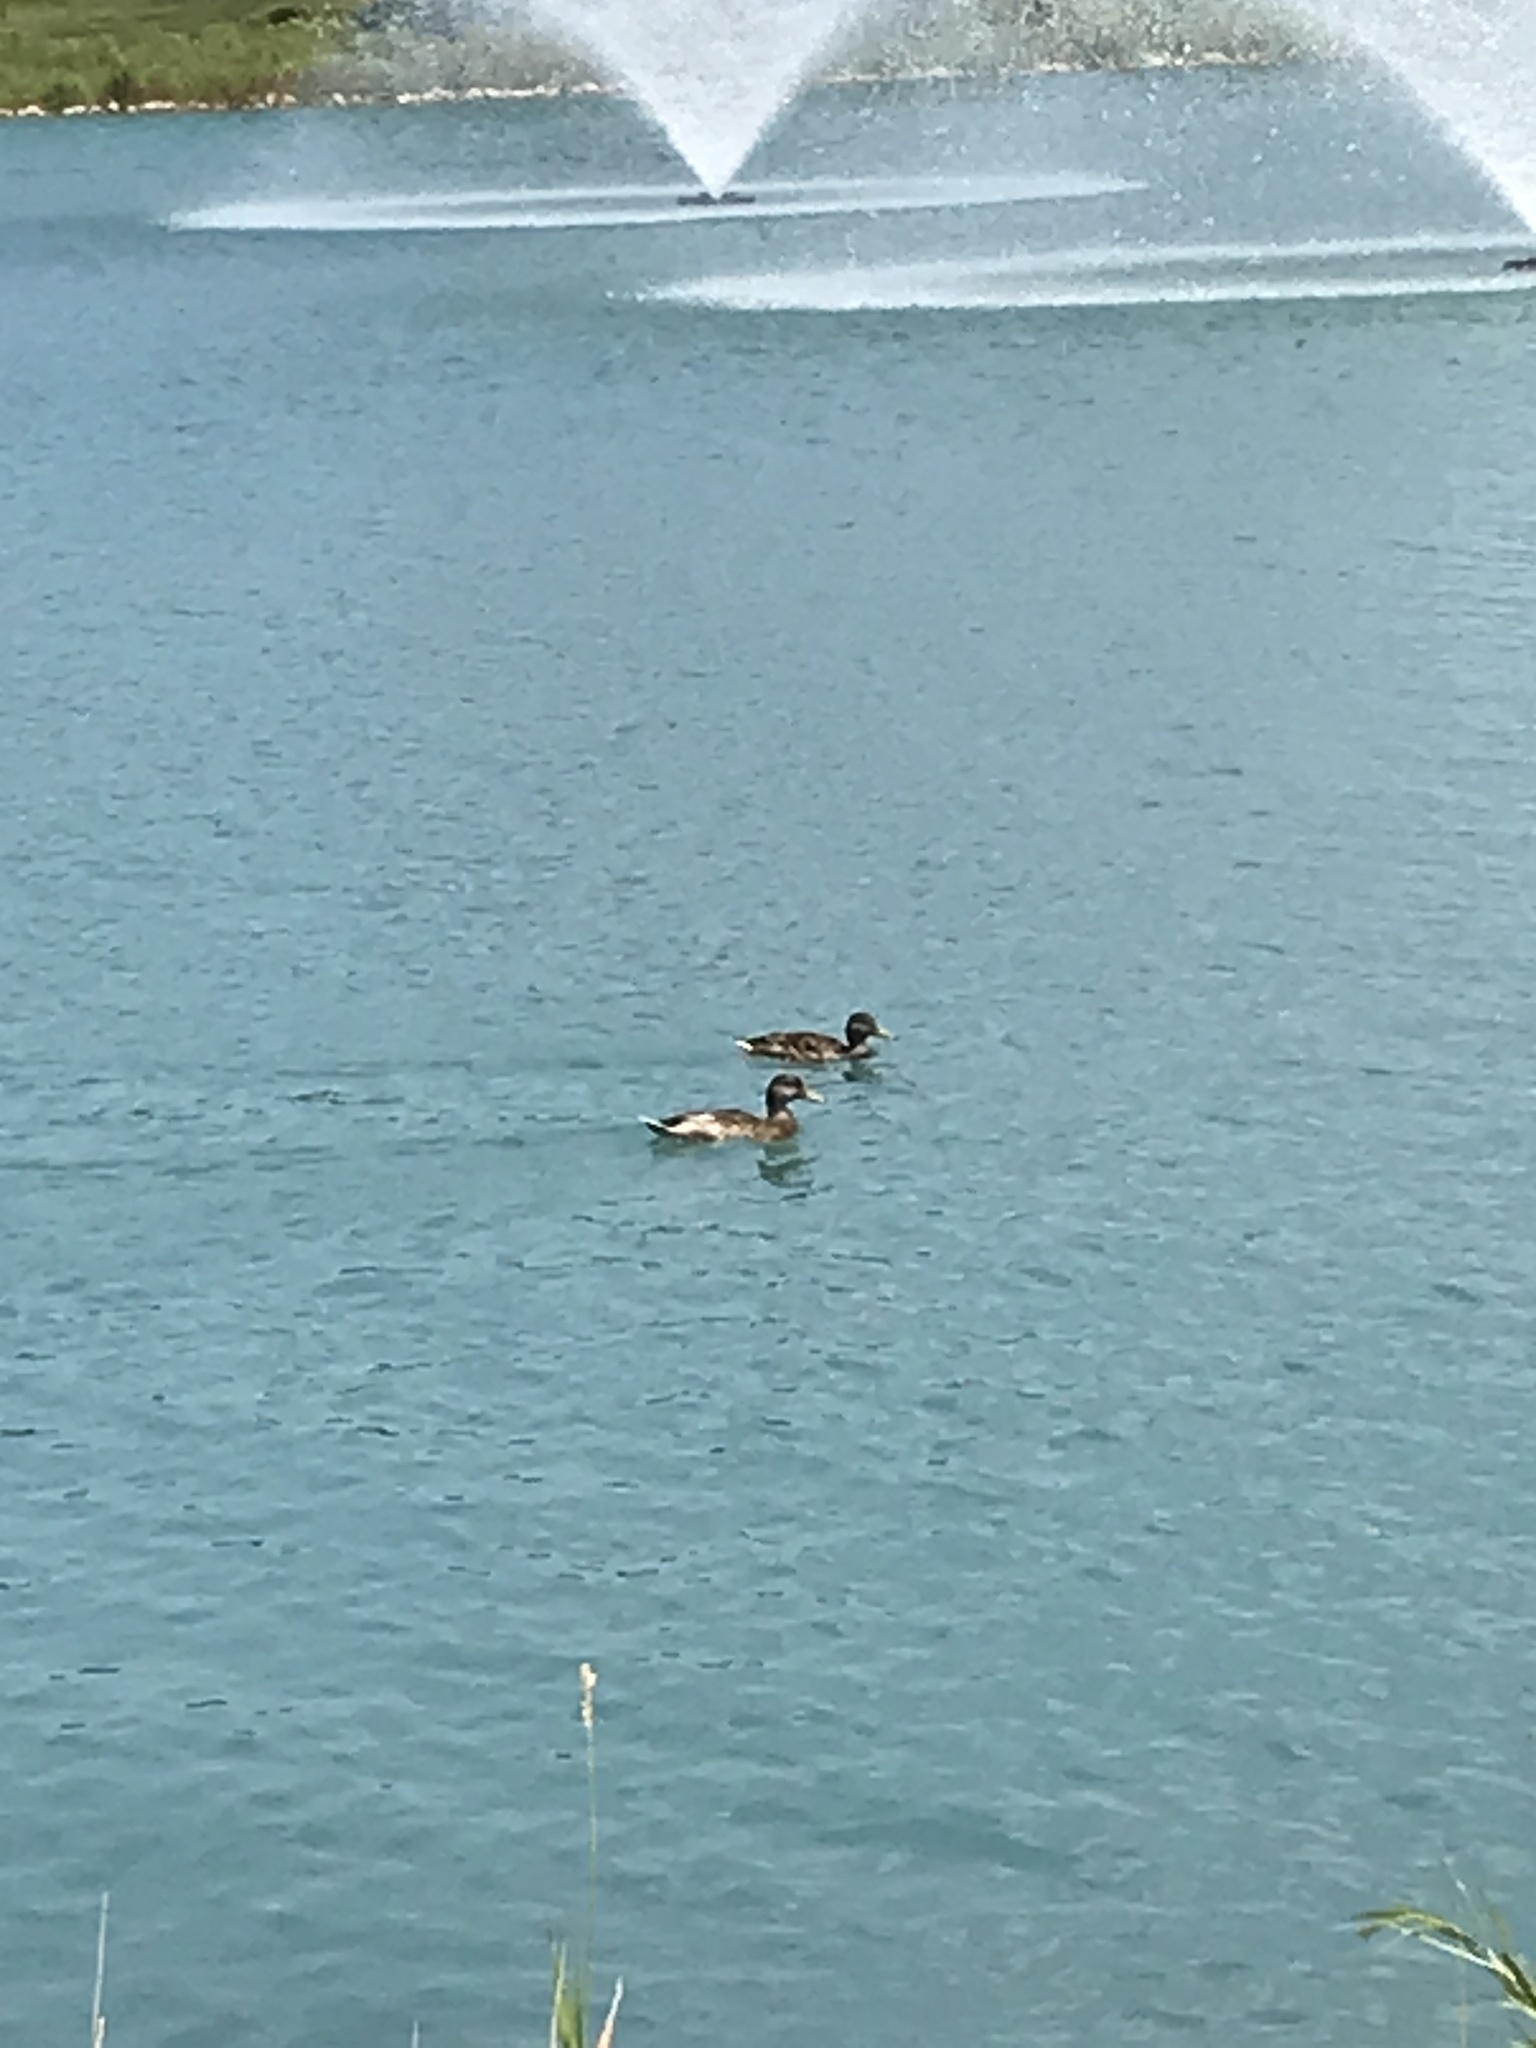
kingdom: Animalia
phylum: Chordata
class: Aves
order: Anseriformes
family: Anatidae
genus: Anas
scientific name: Anas platyrhynchos
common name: Mallard
